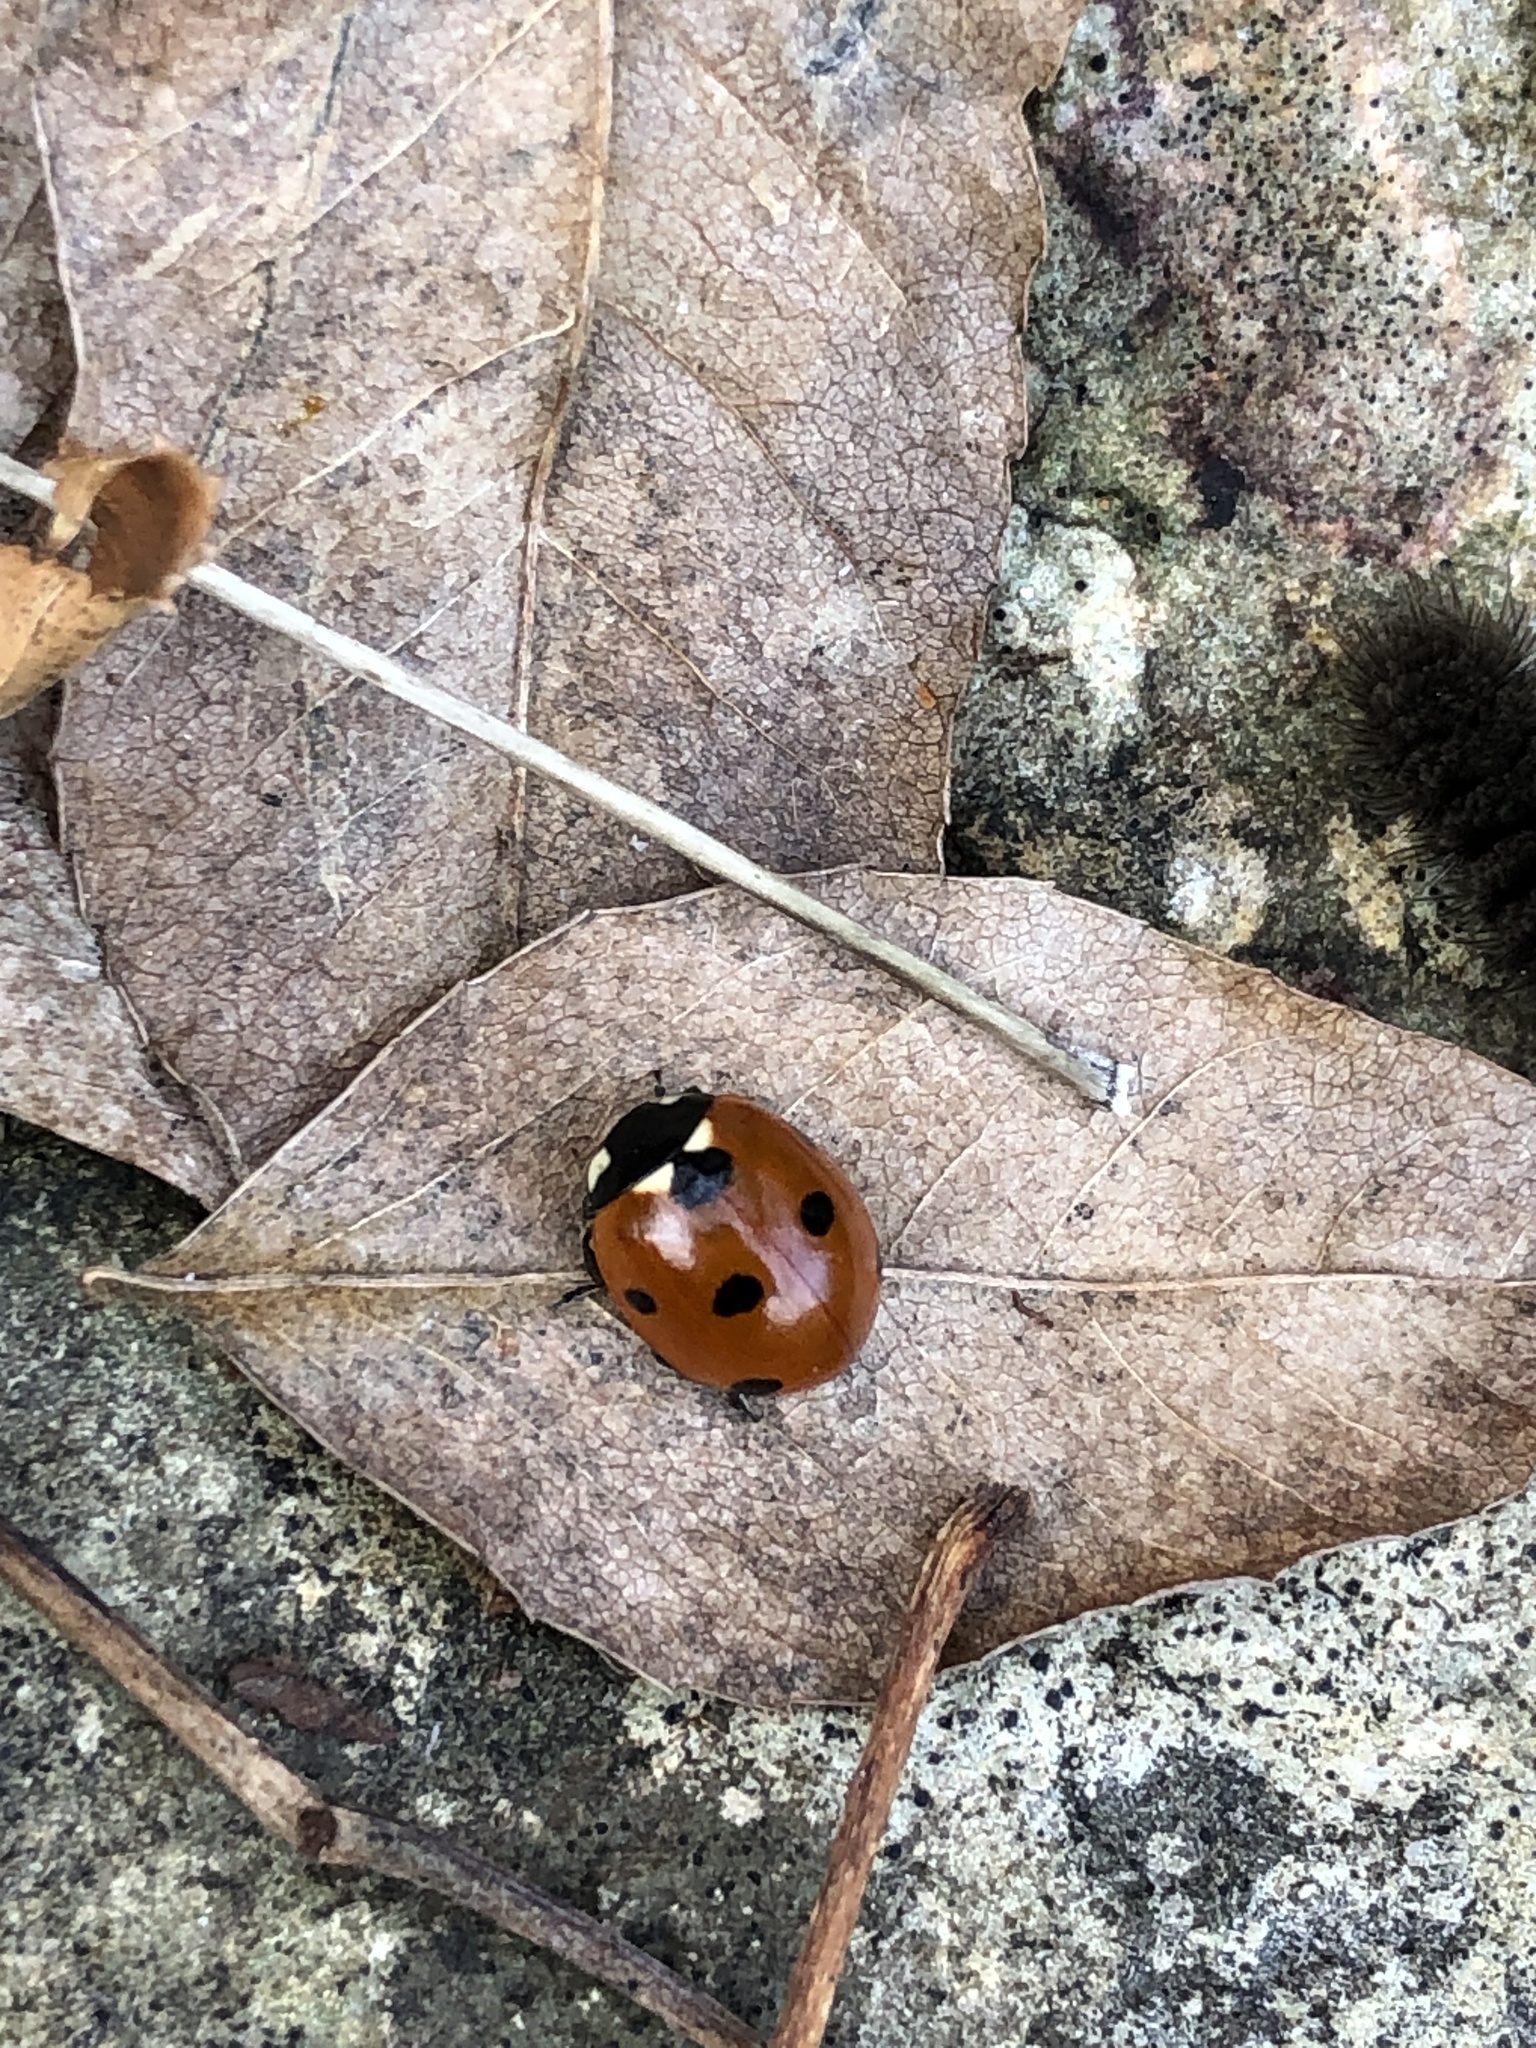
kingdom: Animalia
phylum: Arthropoda
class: Insecta
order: Coleoptera
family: Coccinellidae
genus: Coccinella
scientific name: Coccinella septempunctata
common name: Sevenspotted lady beetle
